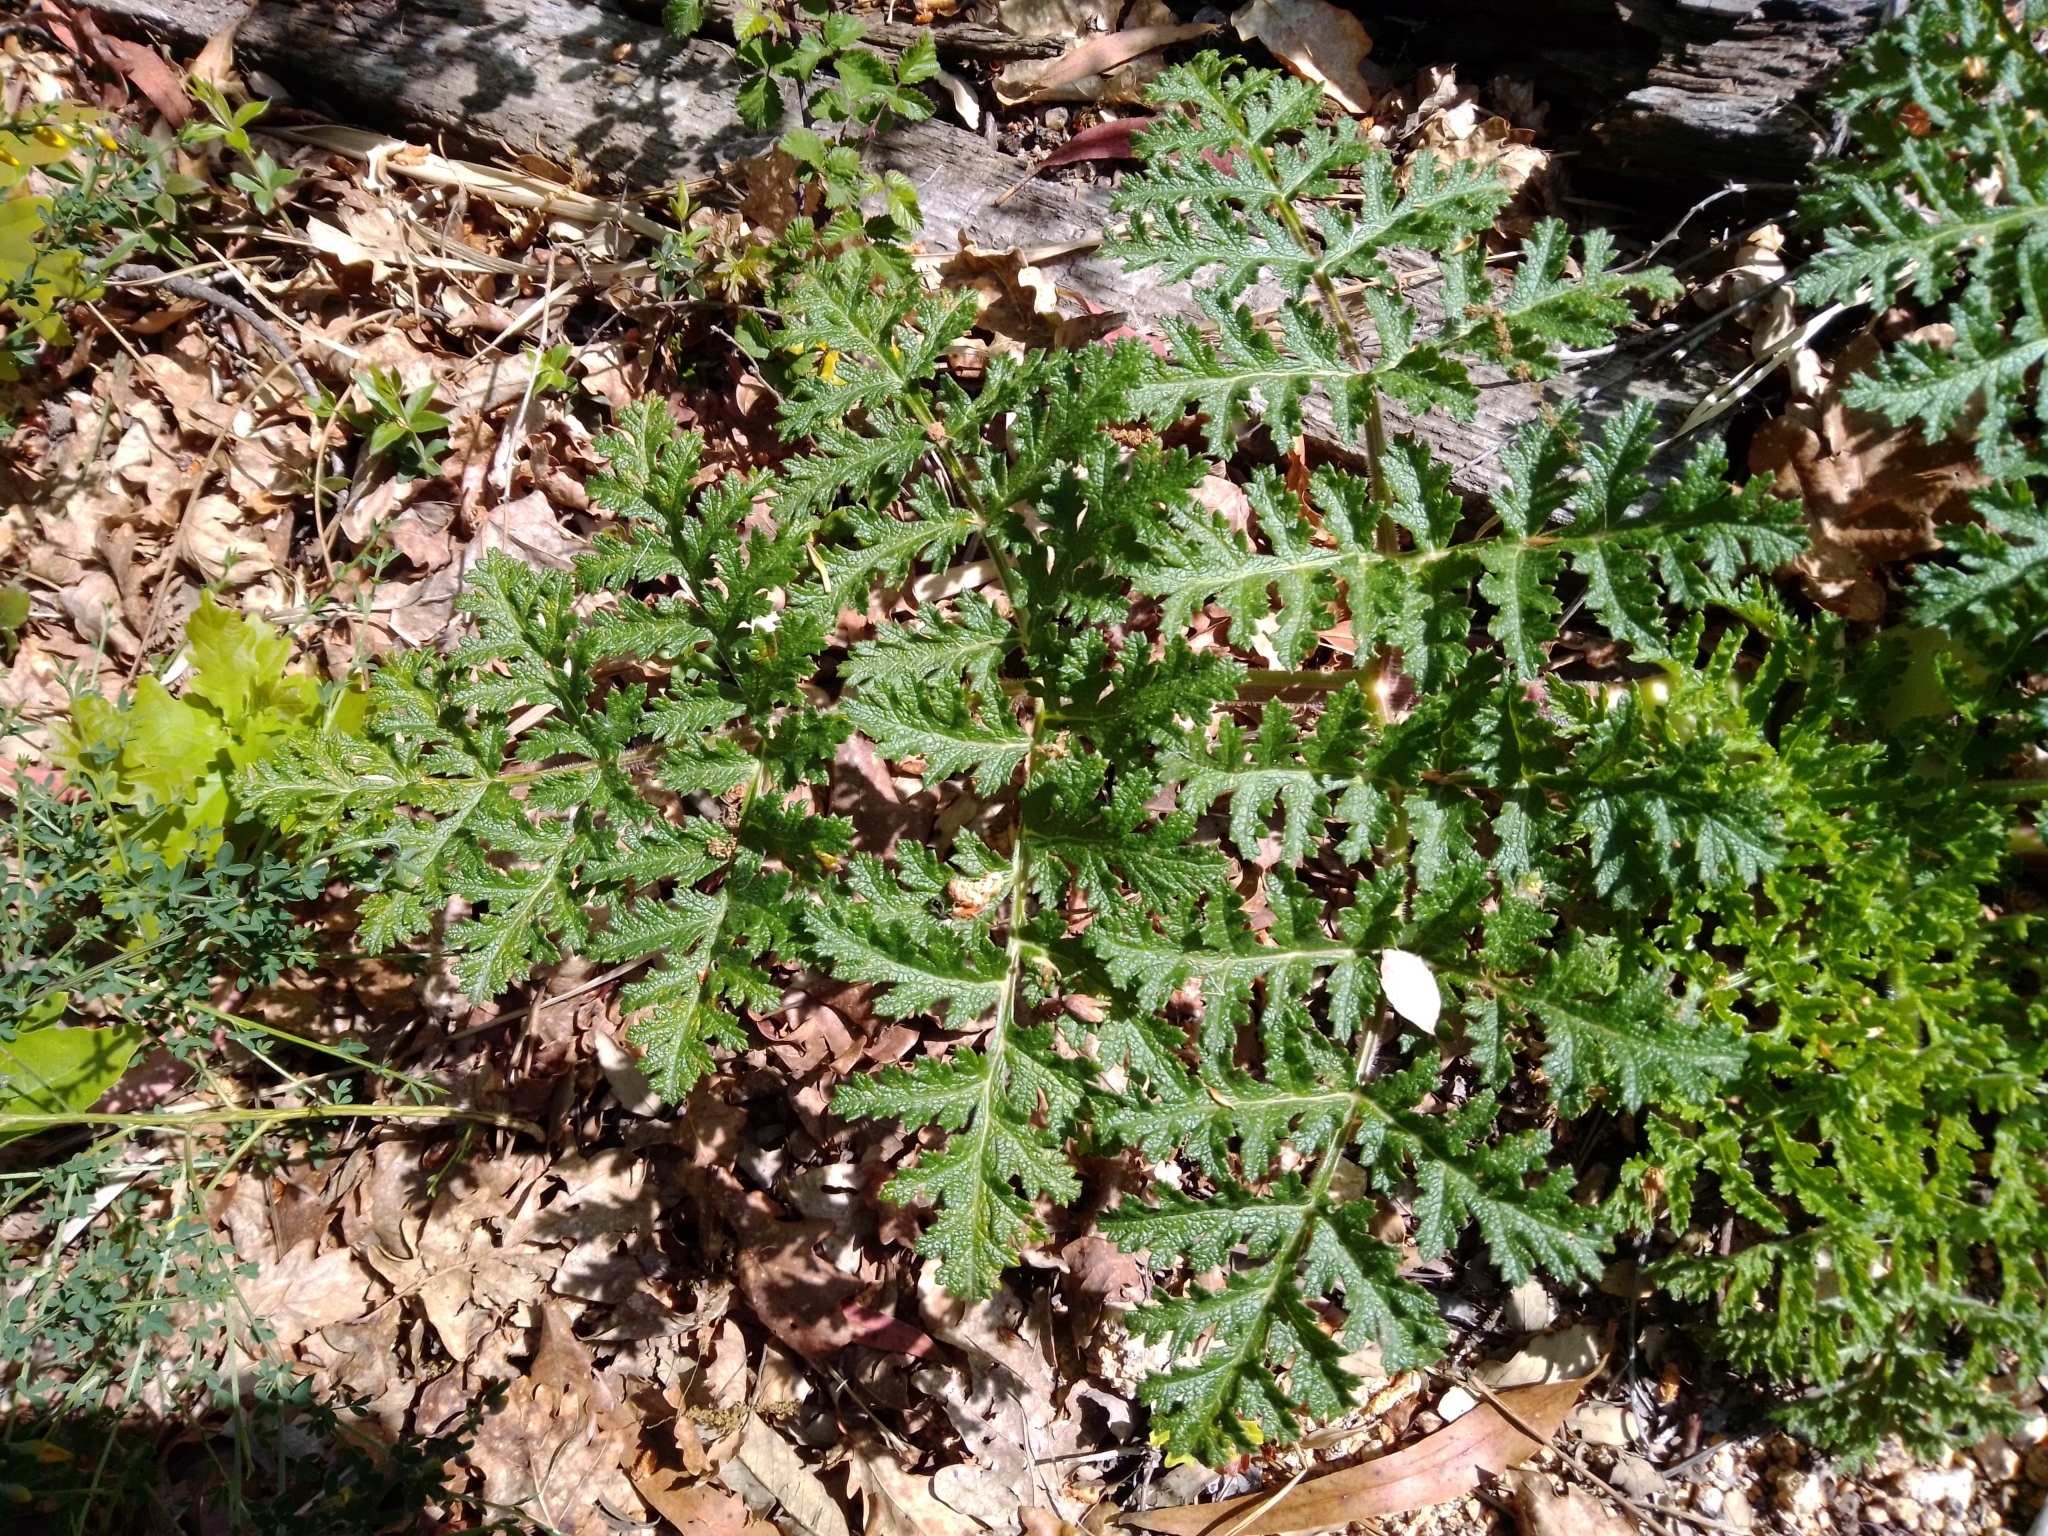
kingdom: Plantae
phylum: Tracheophyta
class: Magnoliopsida
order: Apiales
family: Apiaceae
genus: Thapsia
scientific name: Thapsia villosa
